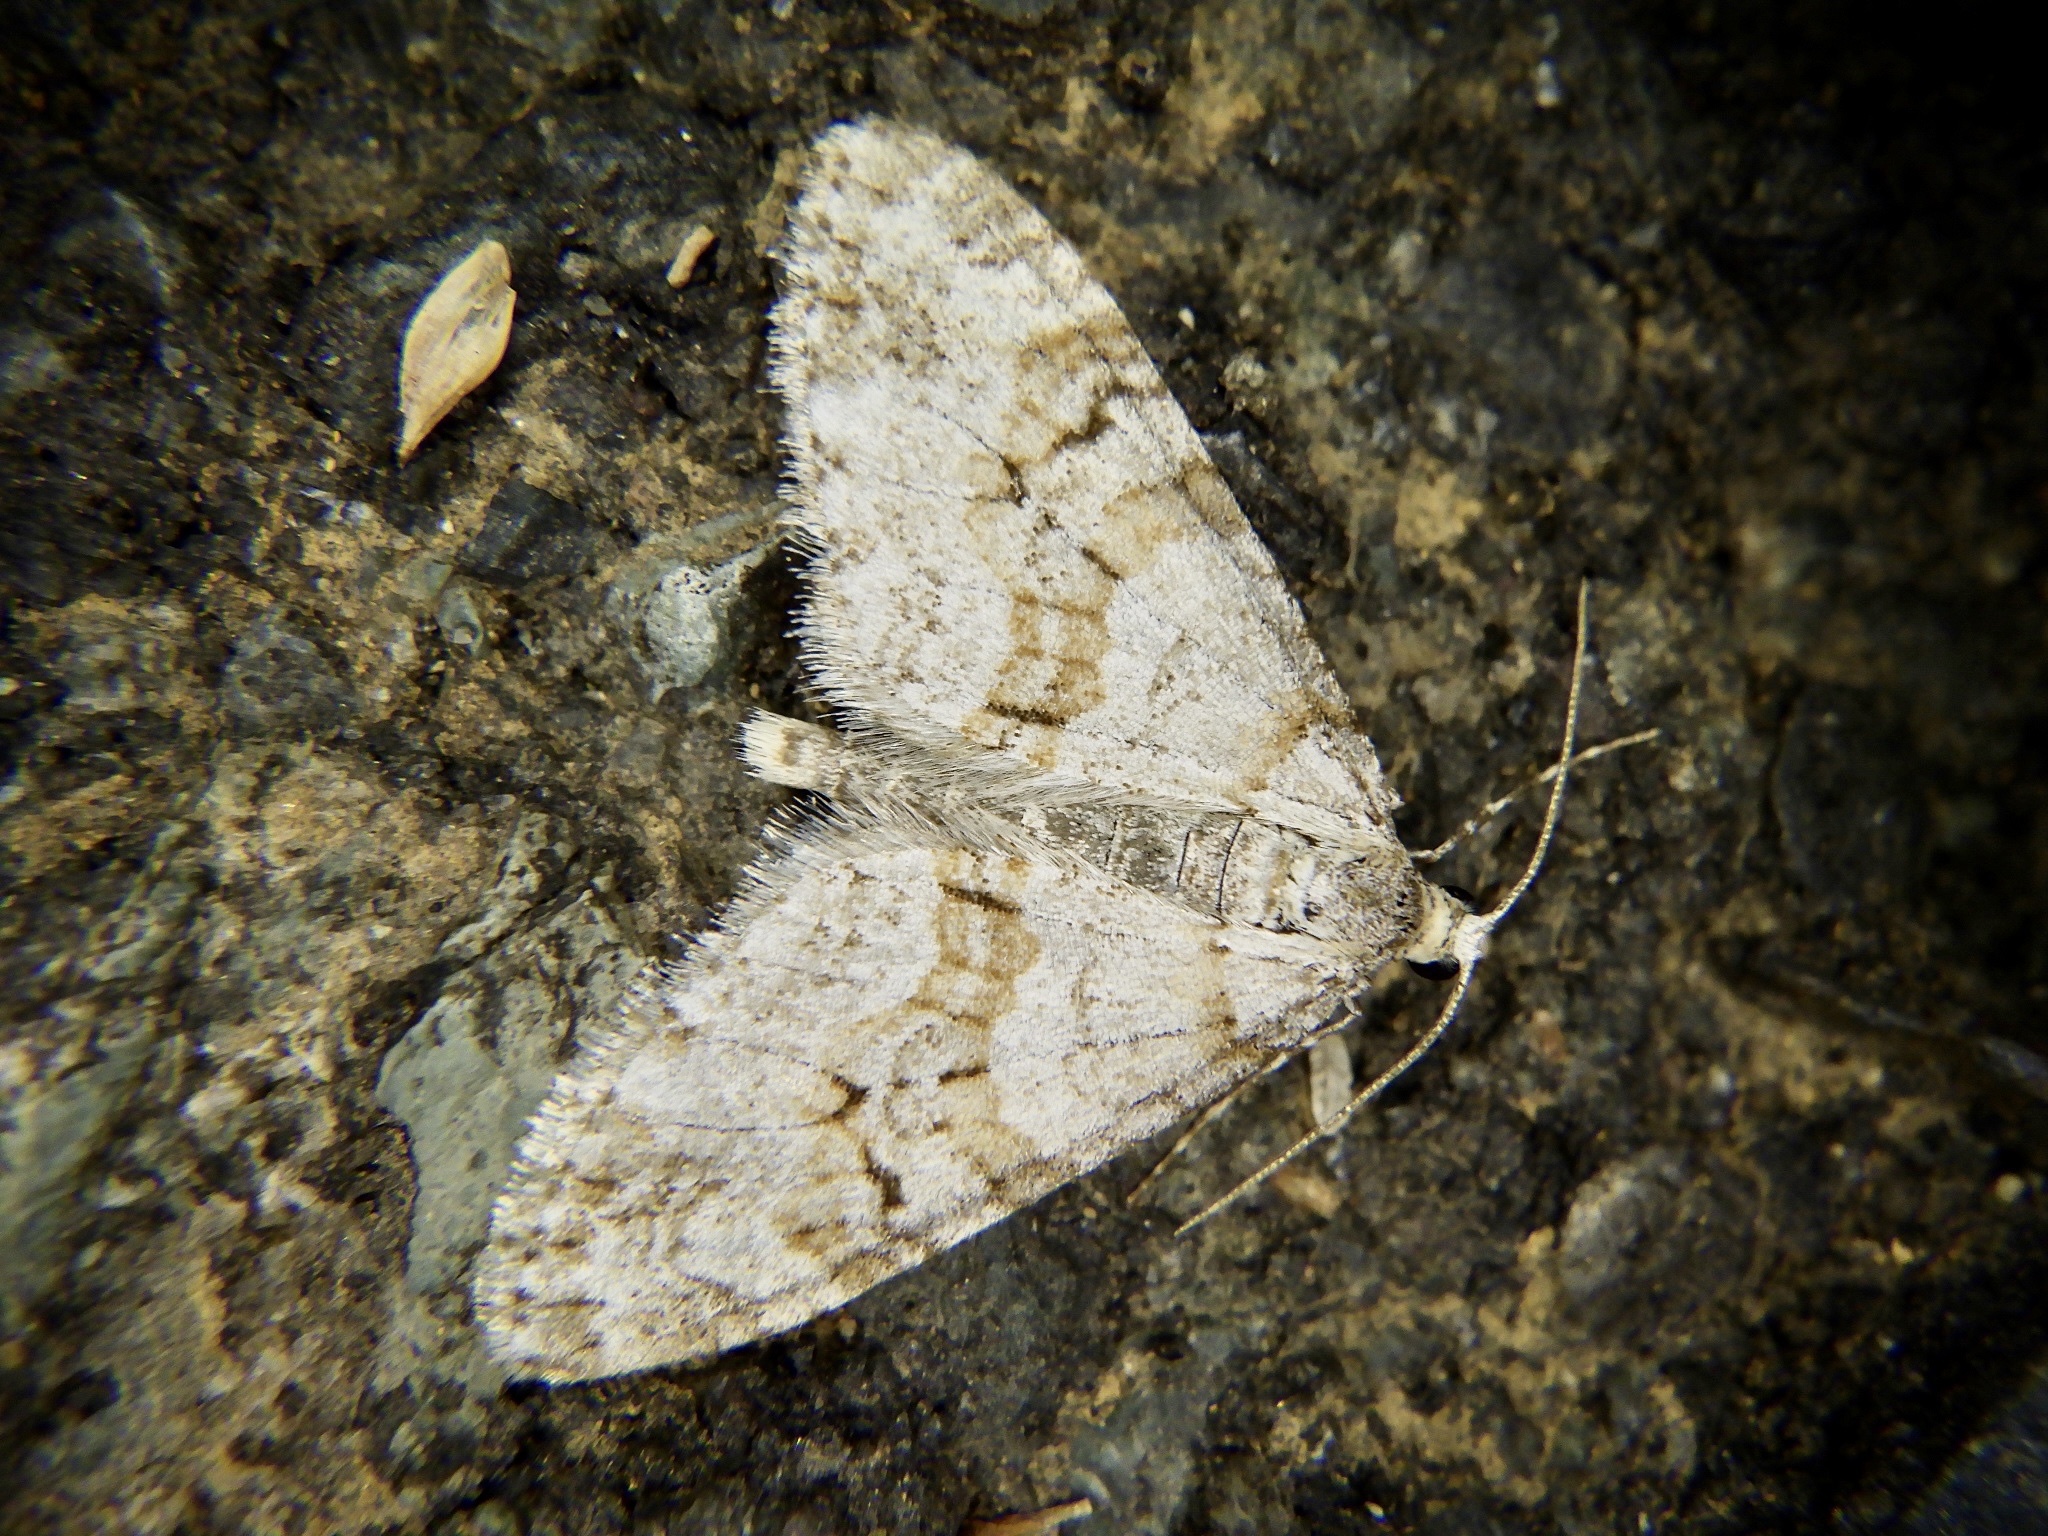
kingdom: Animalia
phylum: Arthropoda
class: Insecta
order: Lepidoptera
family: Geometridae
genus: Trichopteryx
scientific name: Trichopteryx fastuosa
